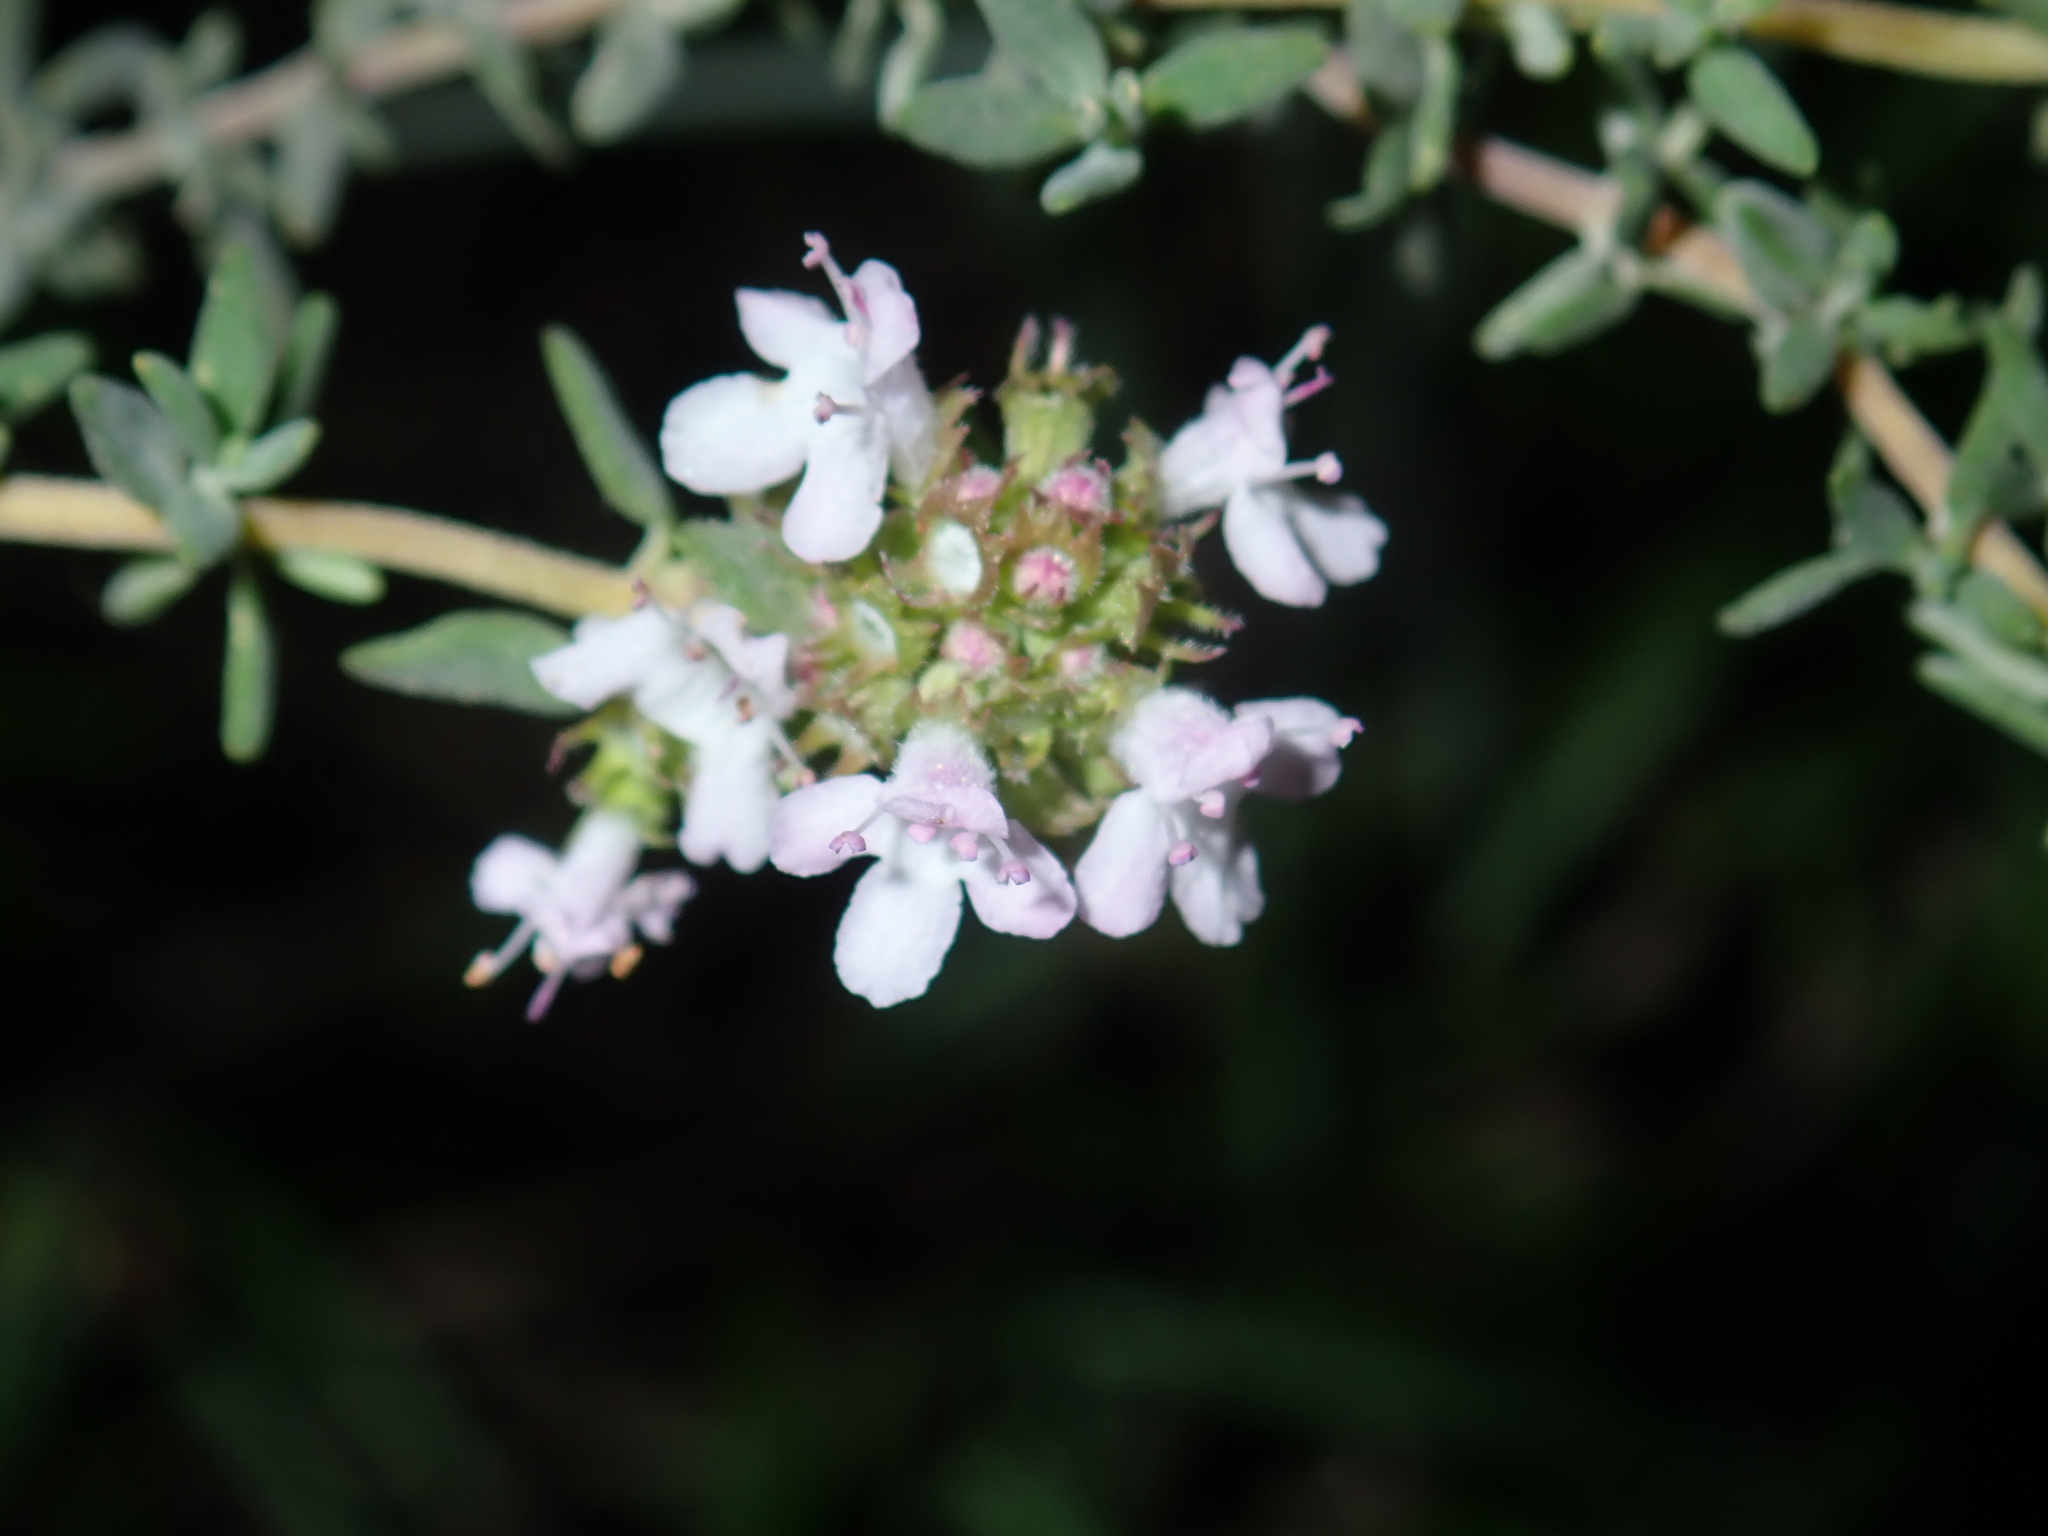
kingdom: Plantae
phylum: Tracheophyta
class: Magnoliopsida
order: Lamiales
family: Lamiaceae
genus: Thymus
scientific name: Thymus vulgaris
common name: Garden thyme
